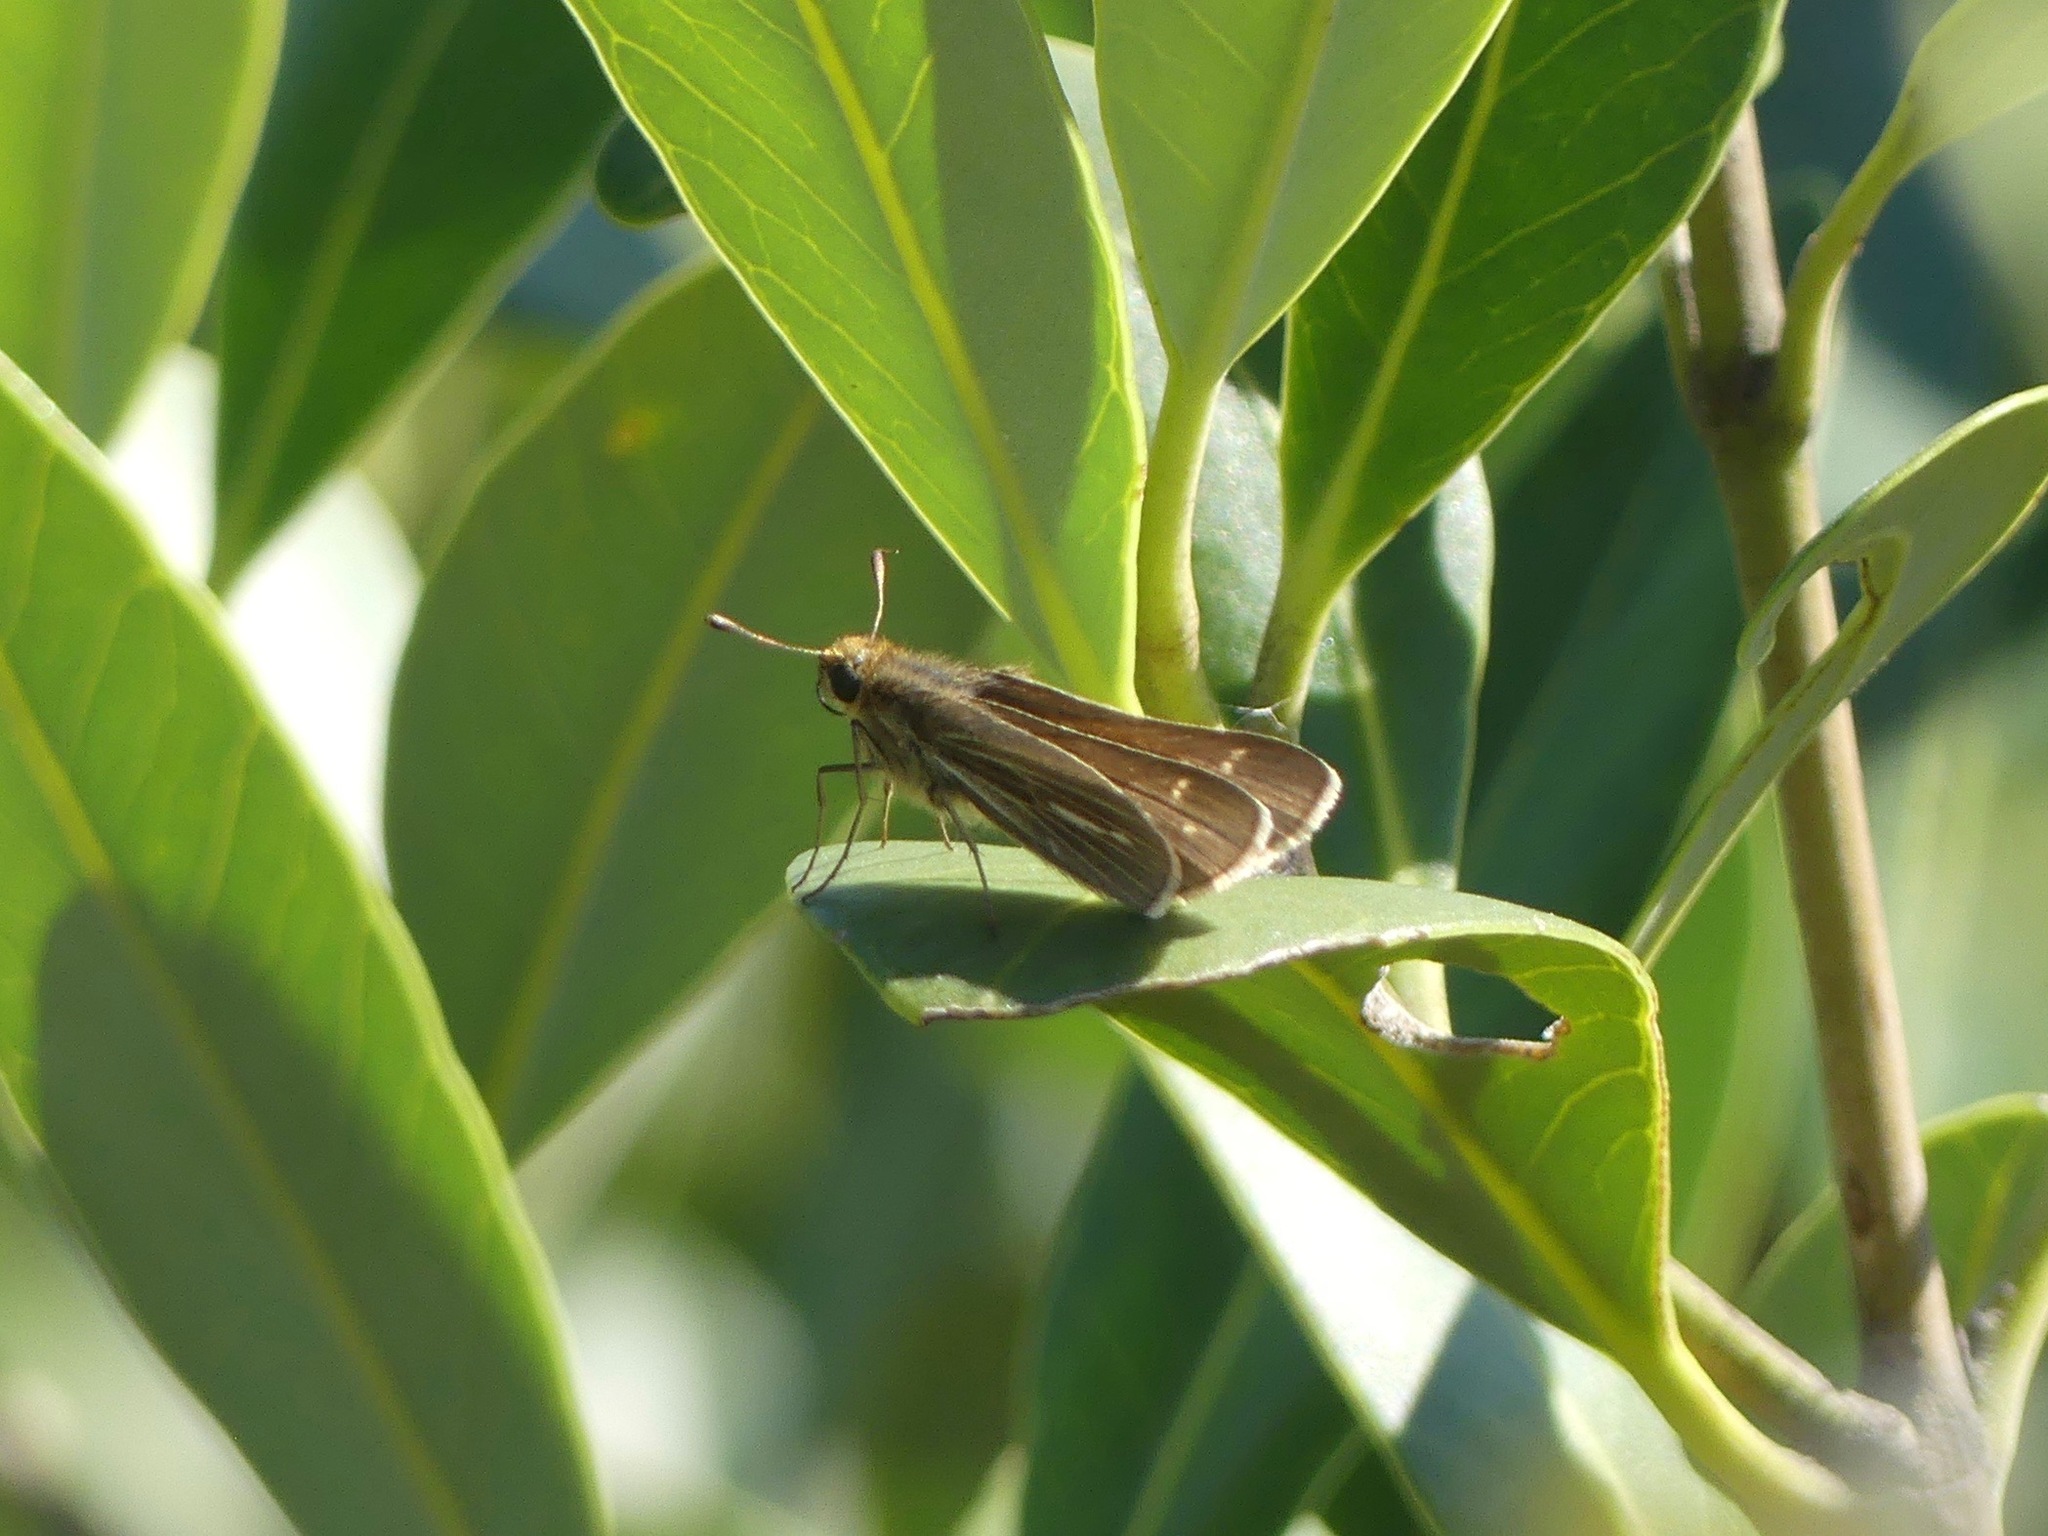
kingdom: Animalia
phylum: Arthropoda
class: Insecta
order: Lepidoptera
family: Hesperiidae
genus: Panoquina
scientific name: Panoquina panoquin
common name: Salt marsh skipper
